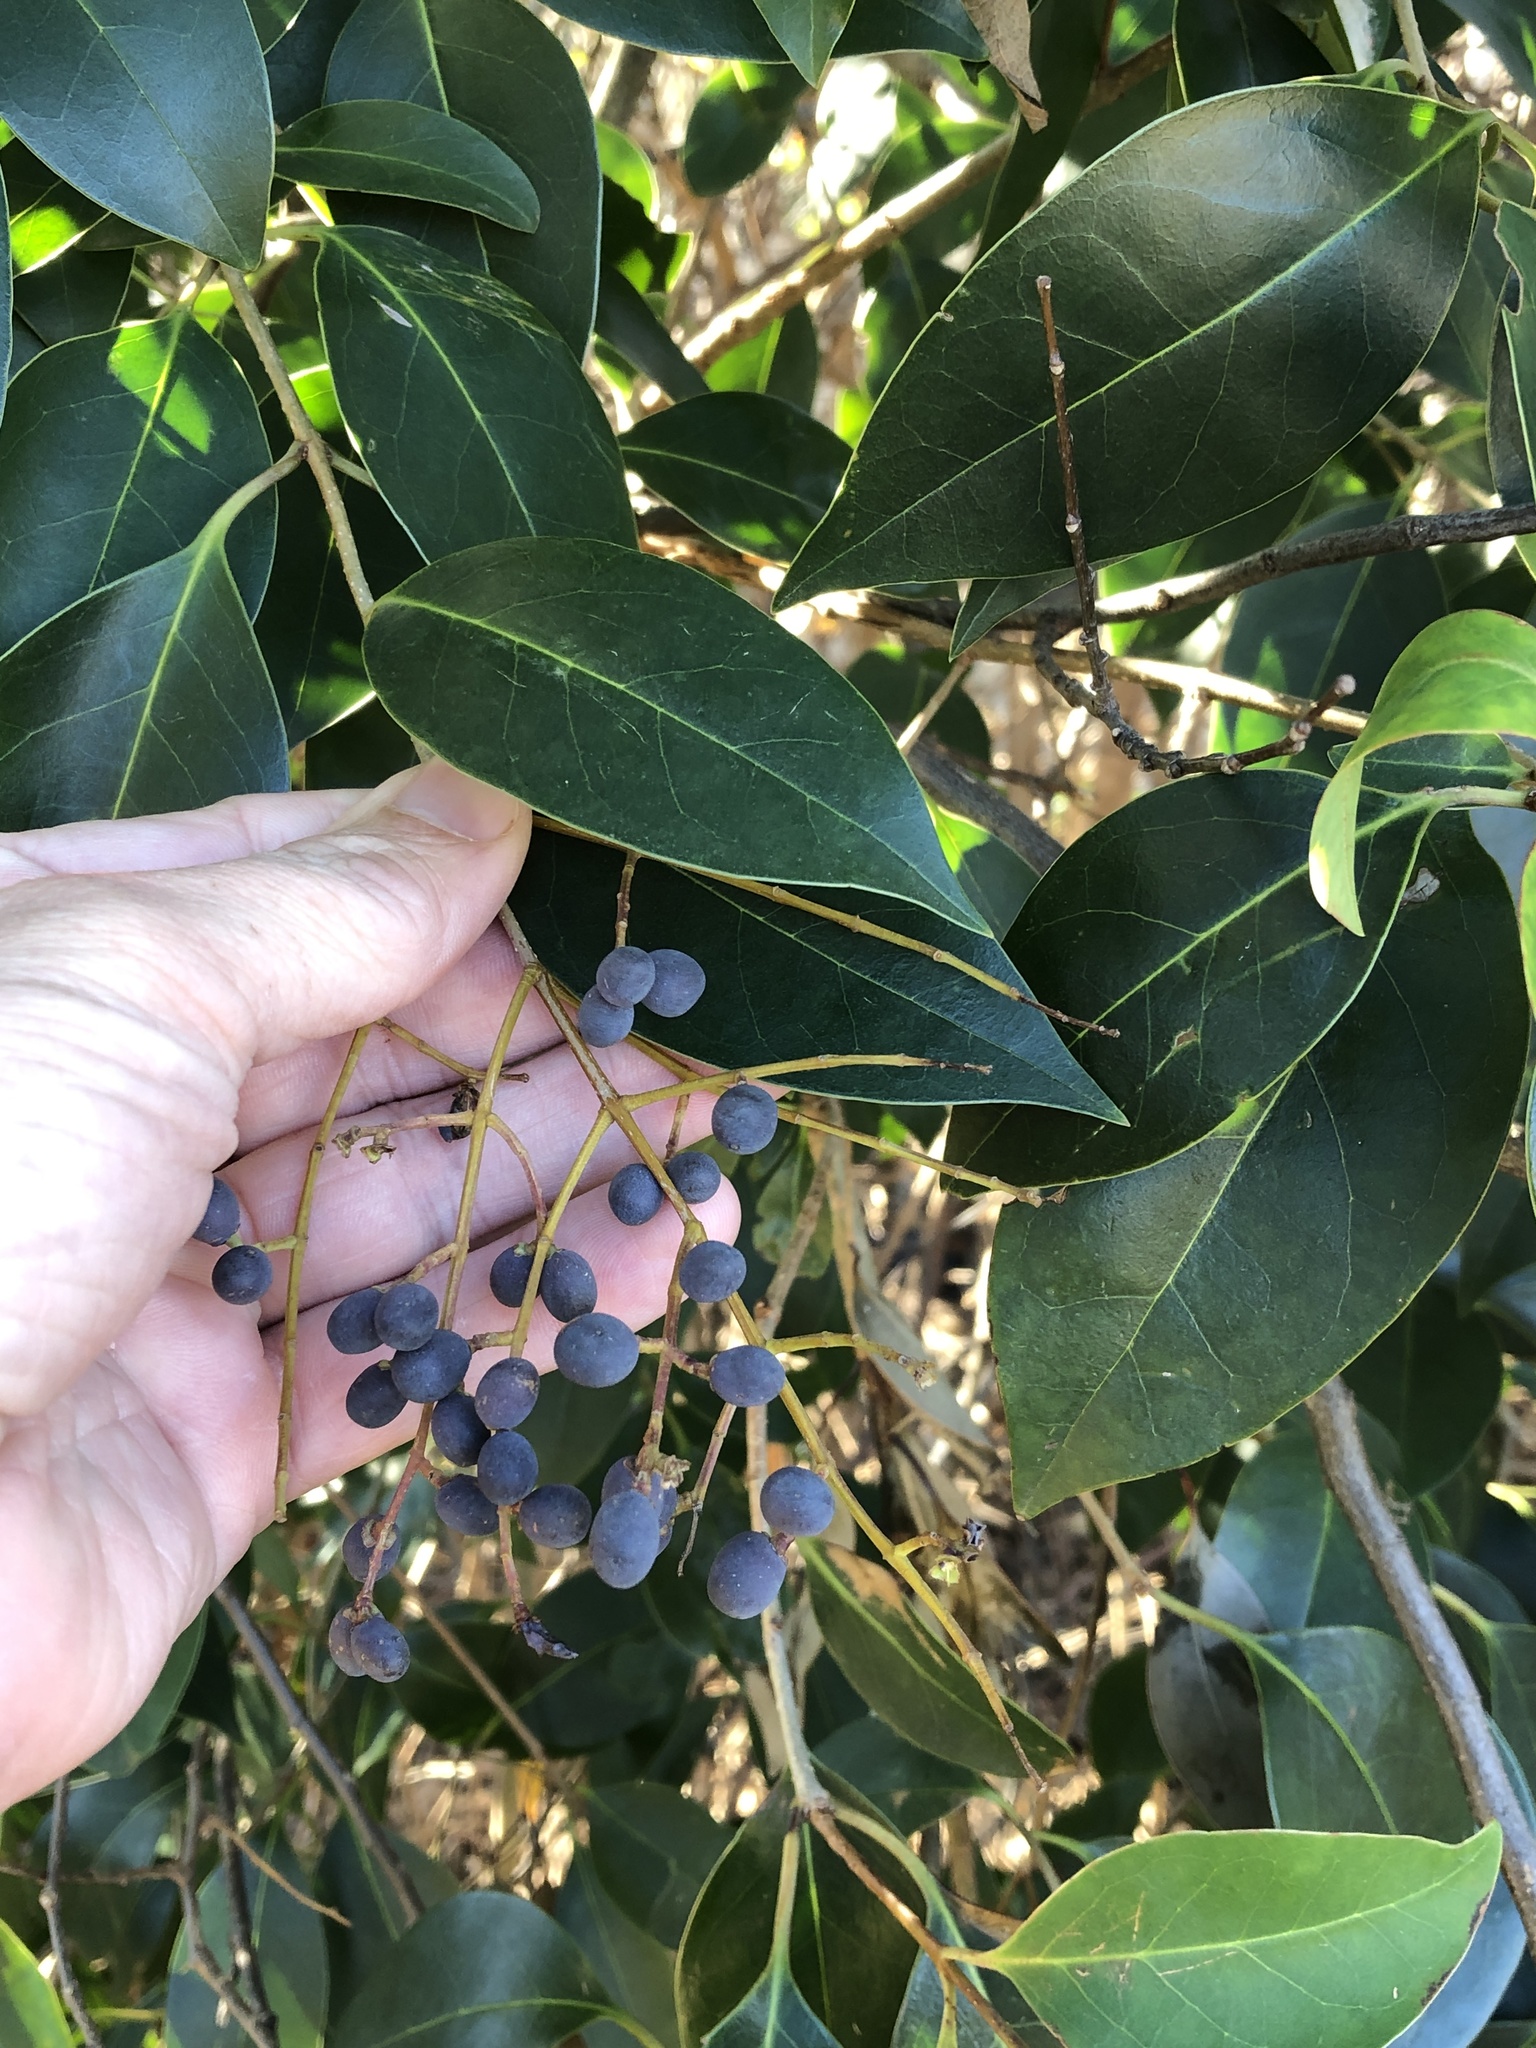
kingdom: Plantae
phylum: Tracheophyta
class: Magnoliopsida
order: Lamiales
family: Oleaceae
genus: Ligustrum
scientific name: Ligustrum lucidum
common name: Glossy privet
